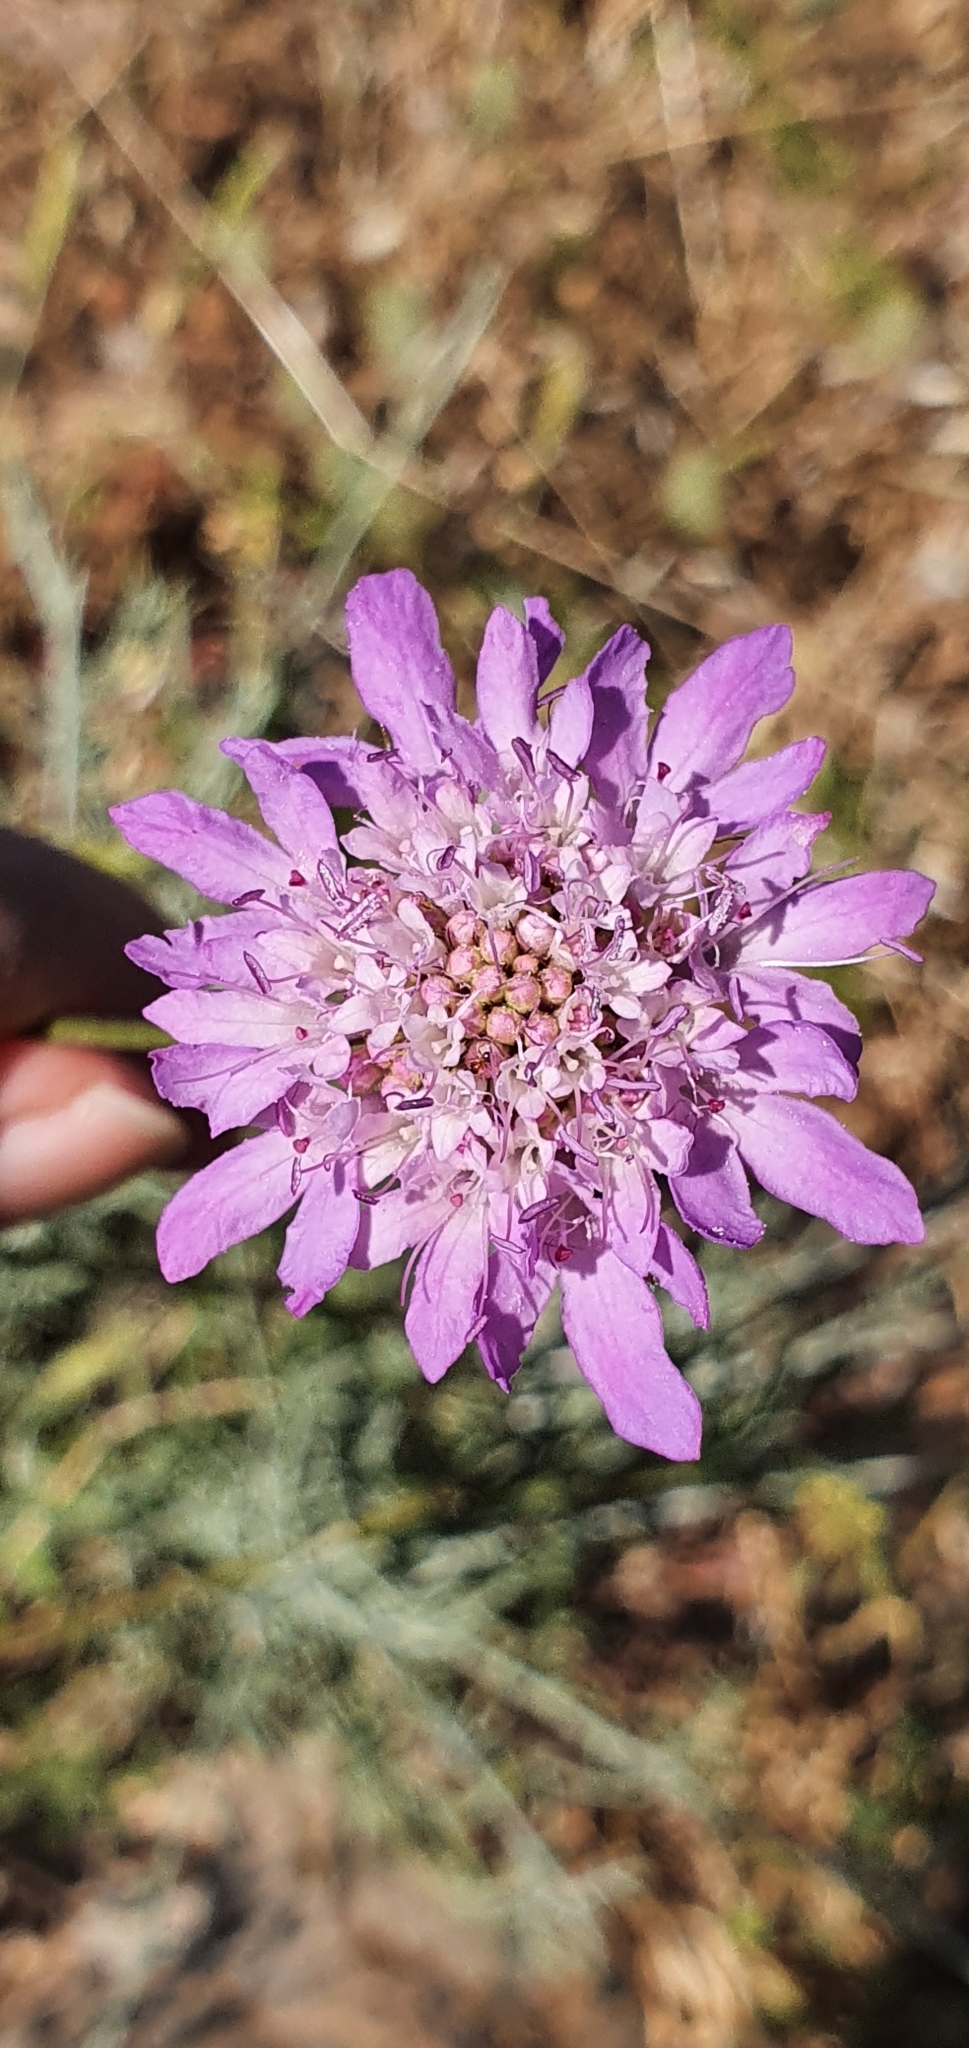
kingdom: Plantae
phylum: Tracheophyta
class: Magnoliopsida
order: Dipsacales
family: Caprifoliaceae
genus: Sixalix
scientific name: Sixalix atropurpurea
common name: Sweet scabious
